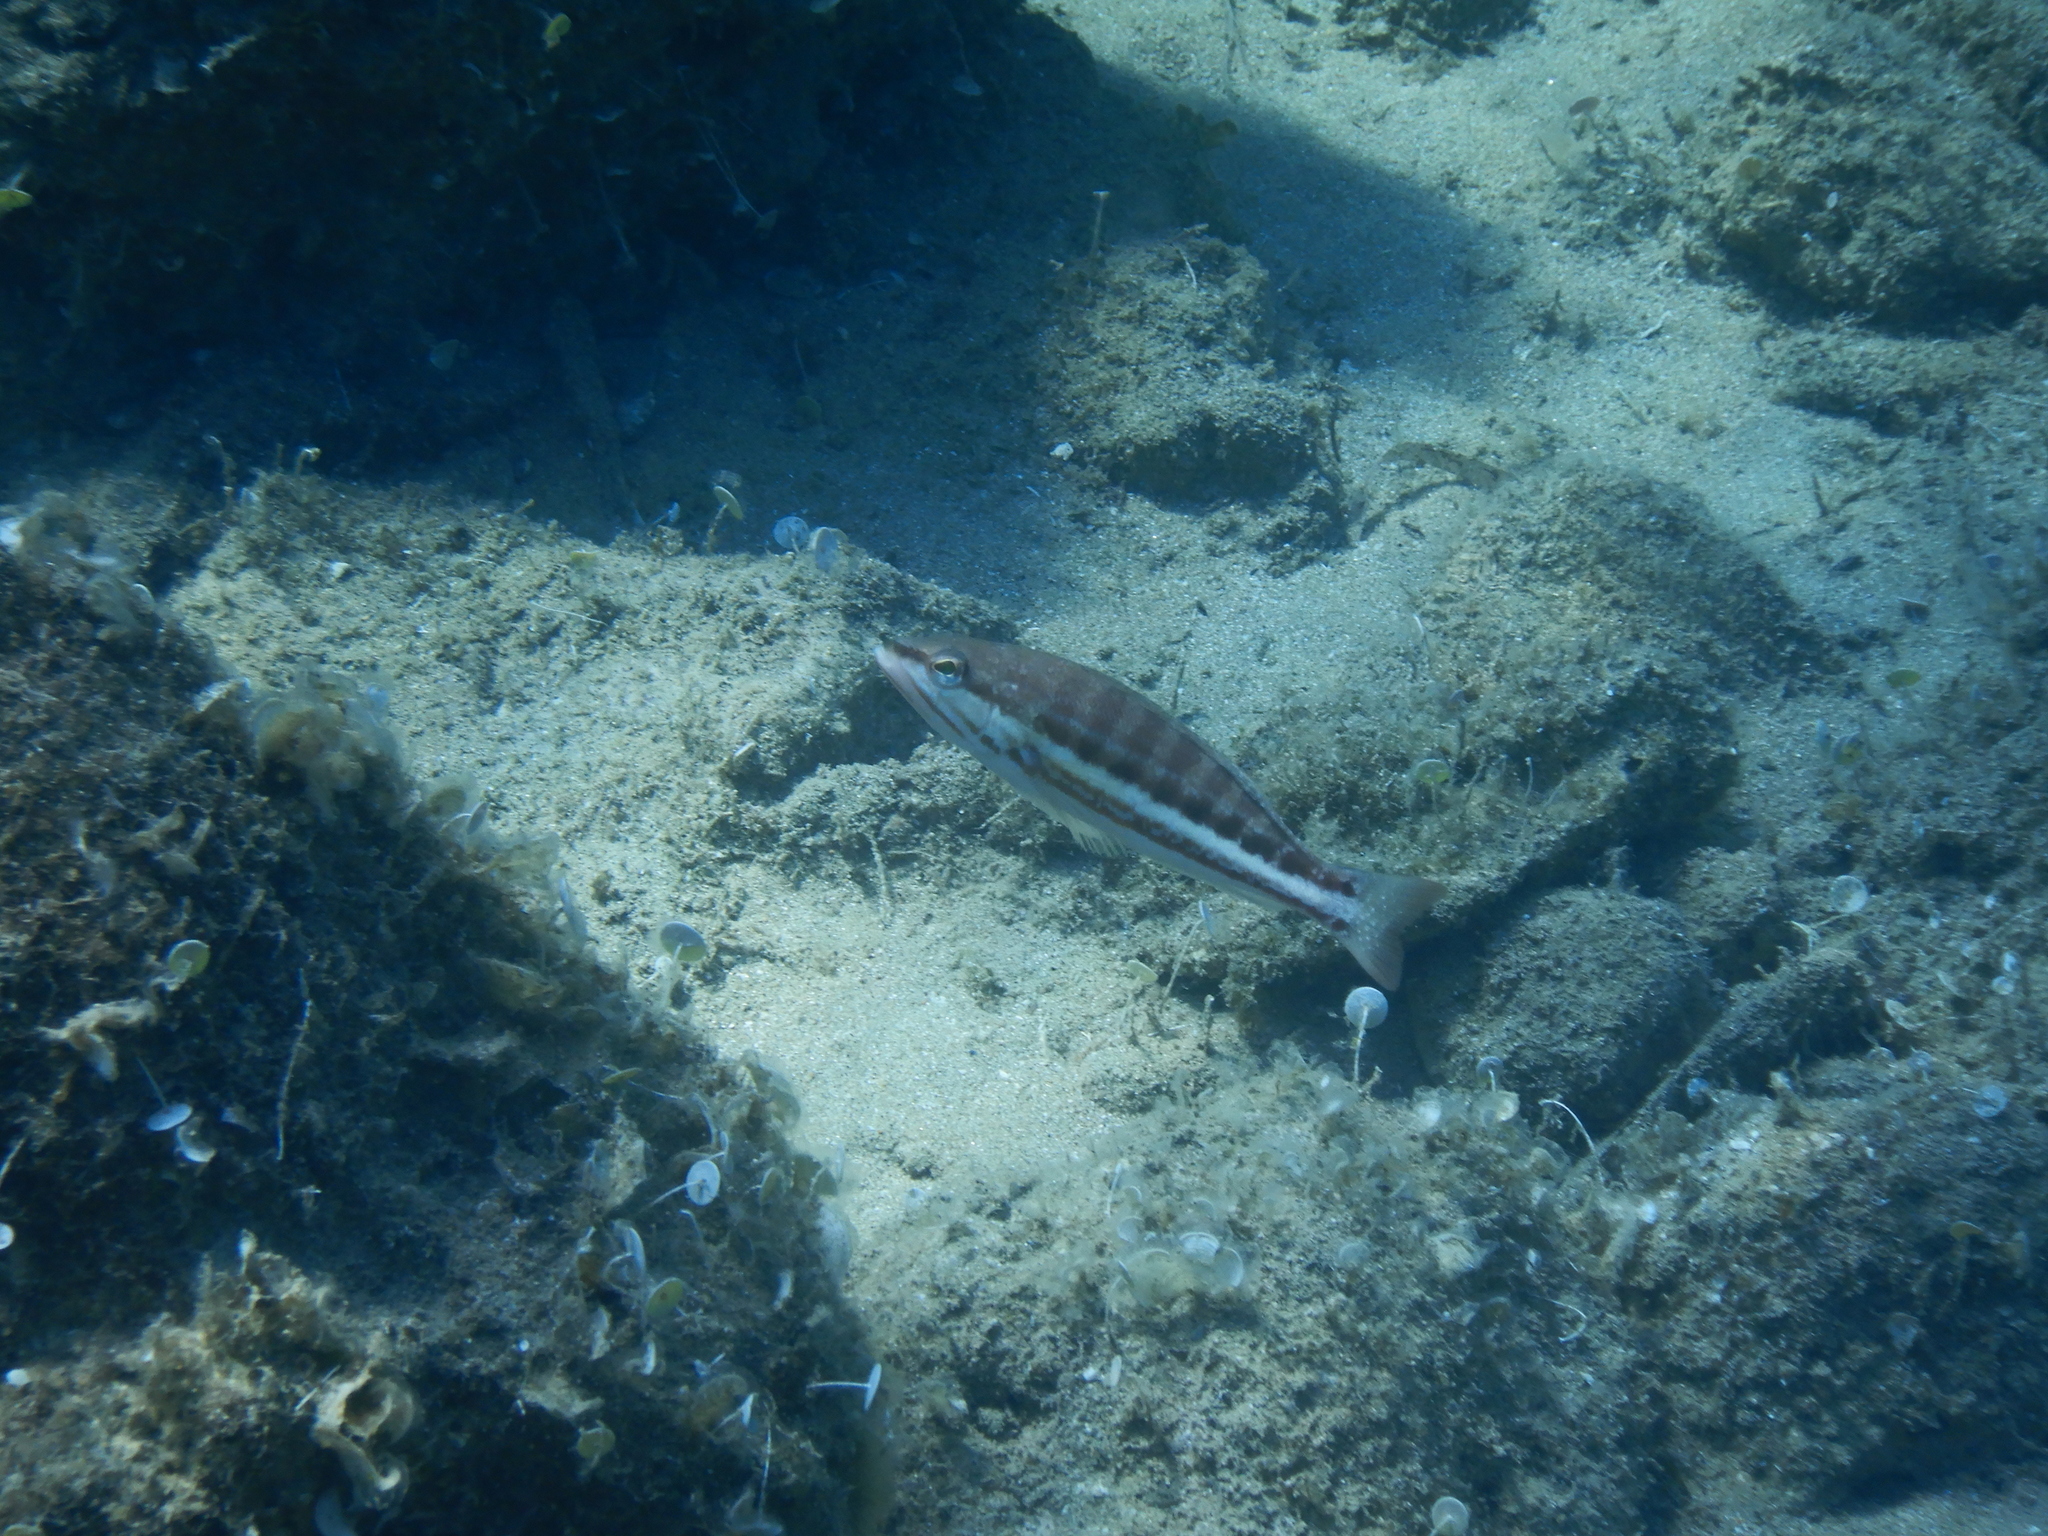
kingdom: Animalia
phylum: Chordata
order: Perciformes
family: Serranidae
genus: Serranus
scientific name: Serranus cabrilla
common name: Comber
